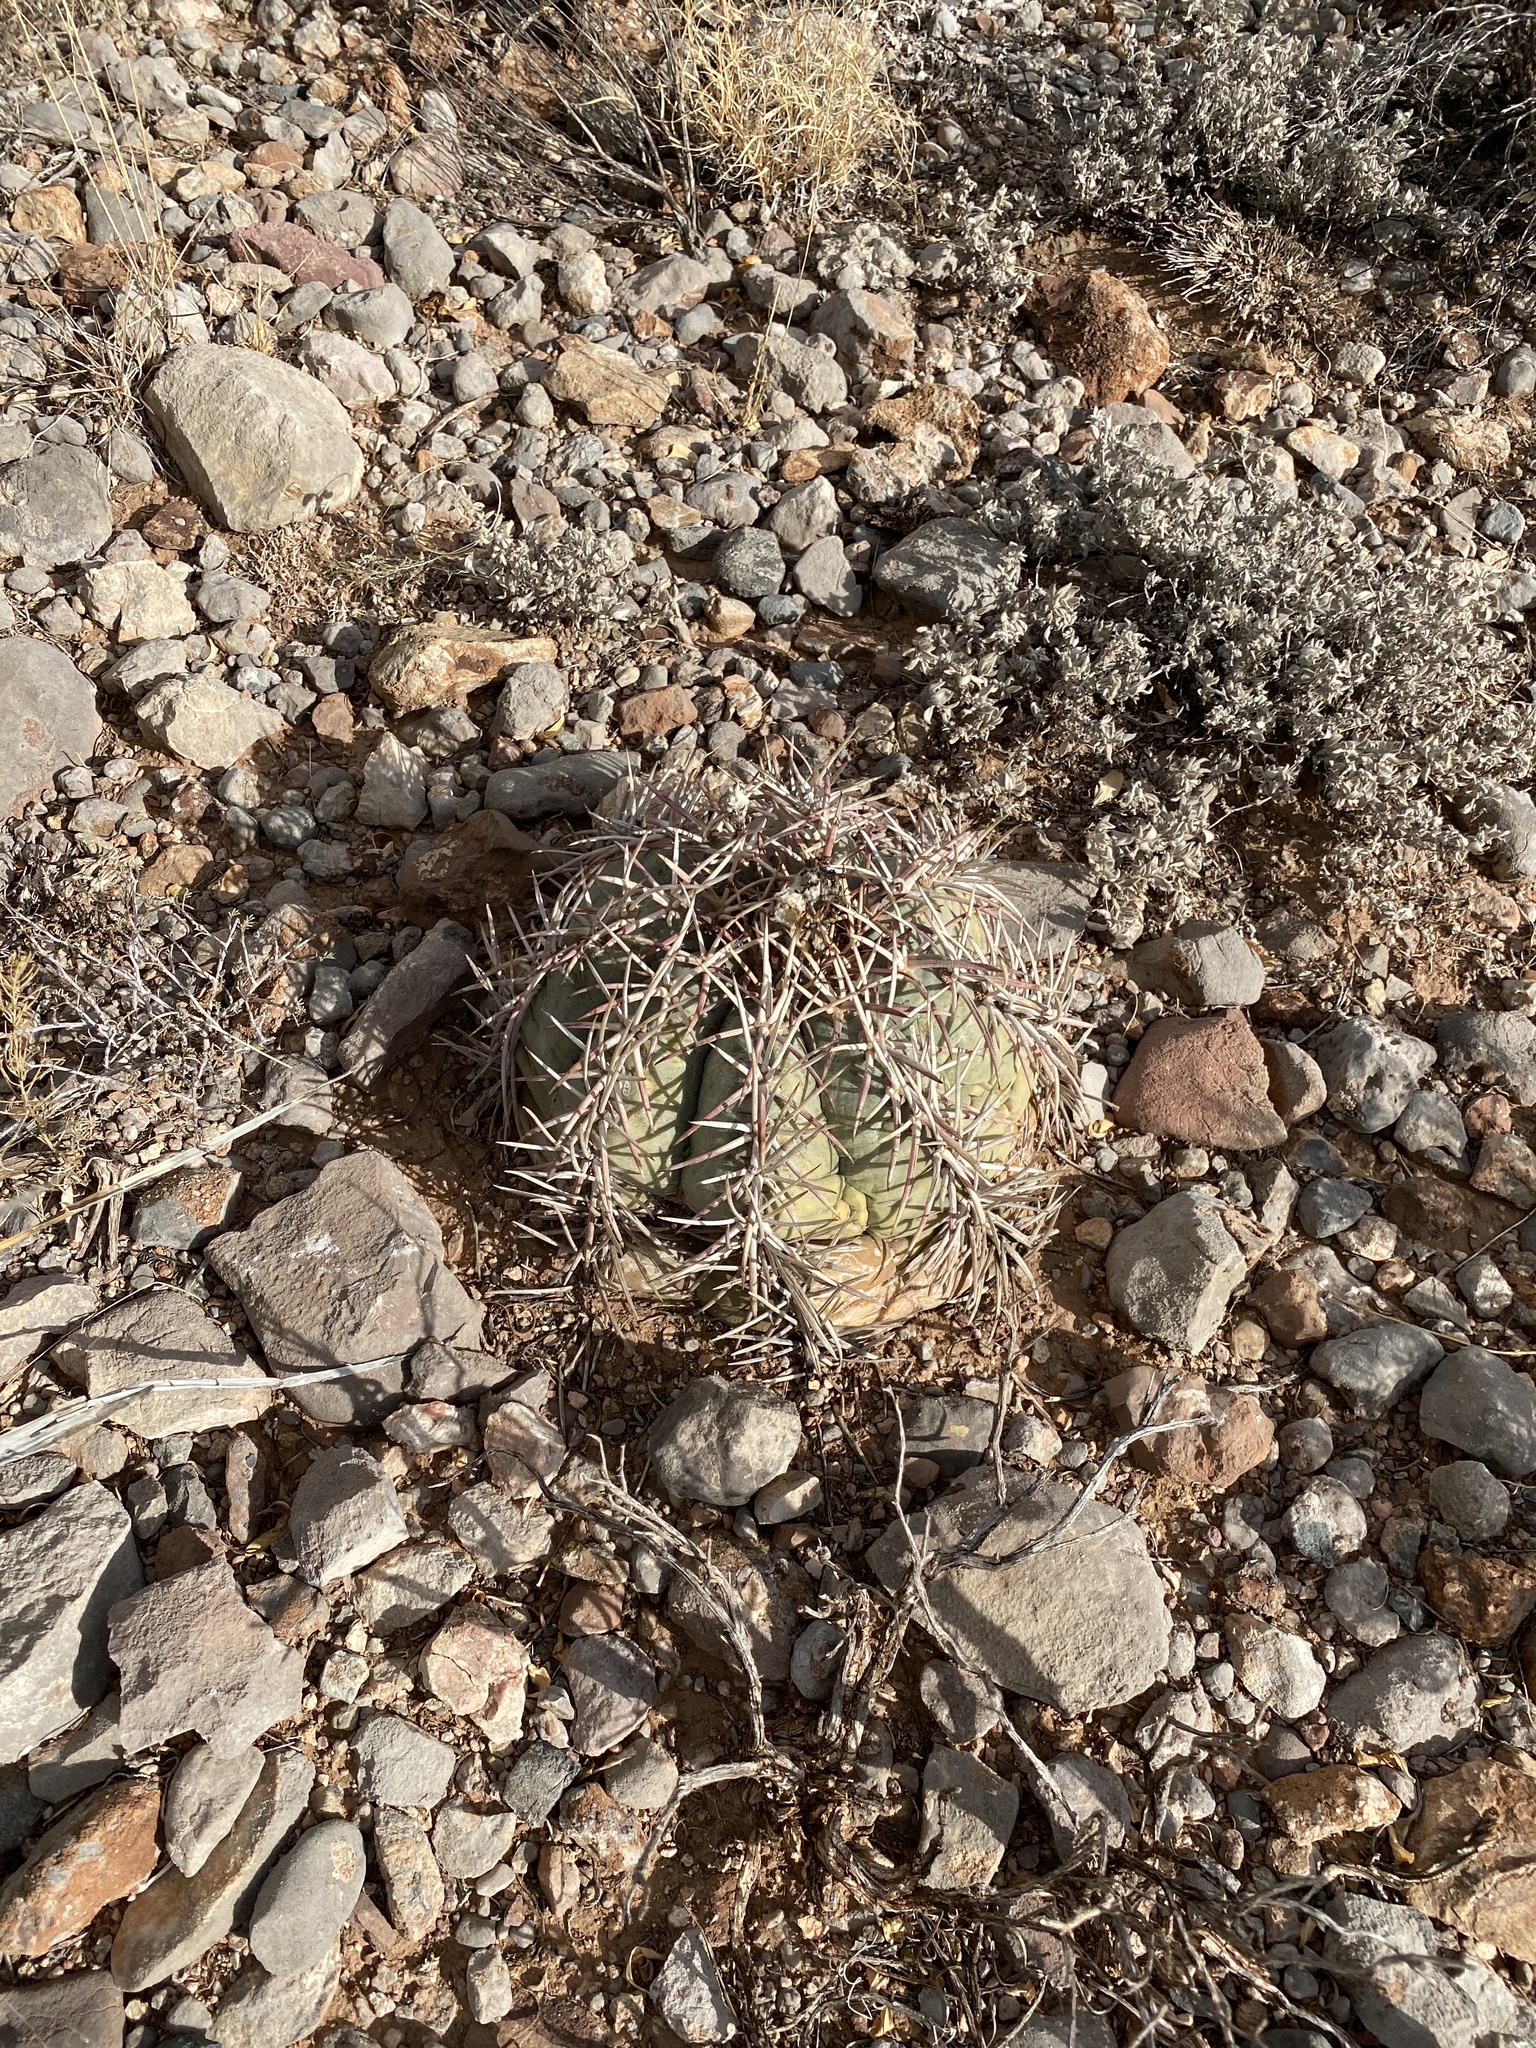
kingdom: Plantae
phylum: Tracheophyta
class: Magnoliopsida
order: Caryophyllales
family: Cactaceae
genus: Echinocactus
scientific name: Echinocactus horizonthalonius
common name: Devilshead
